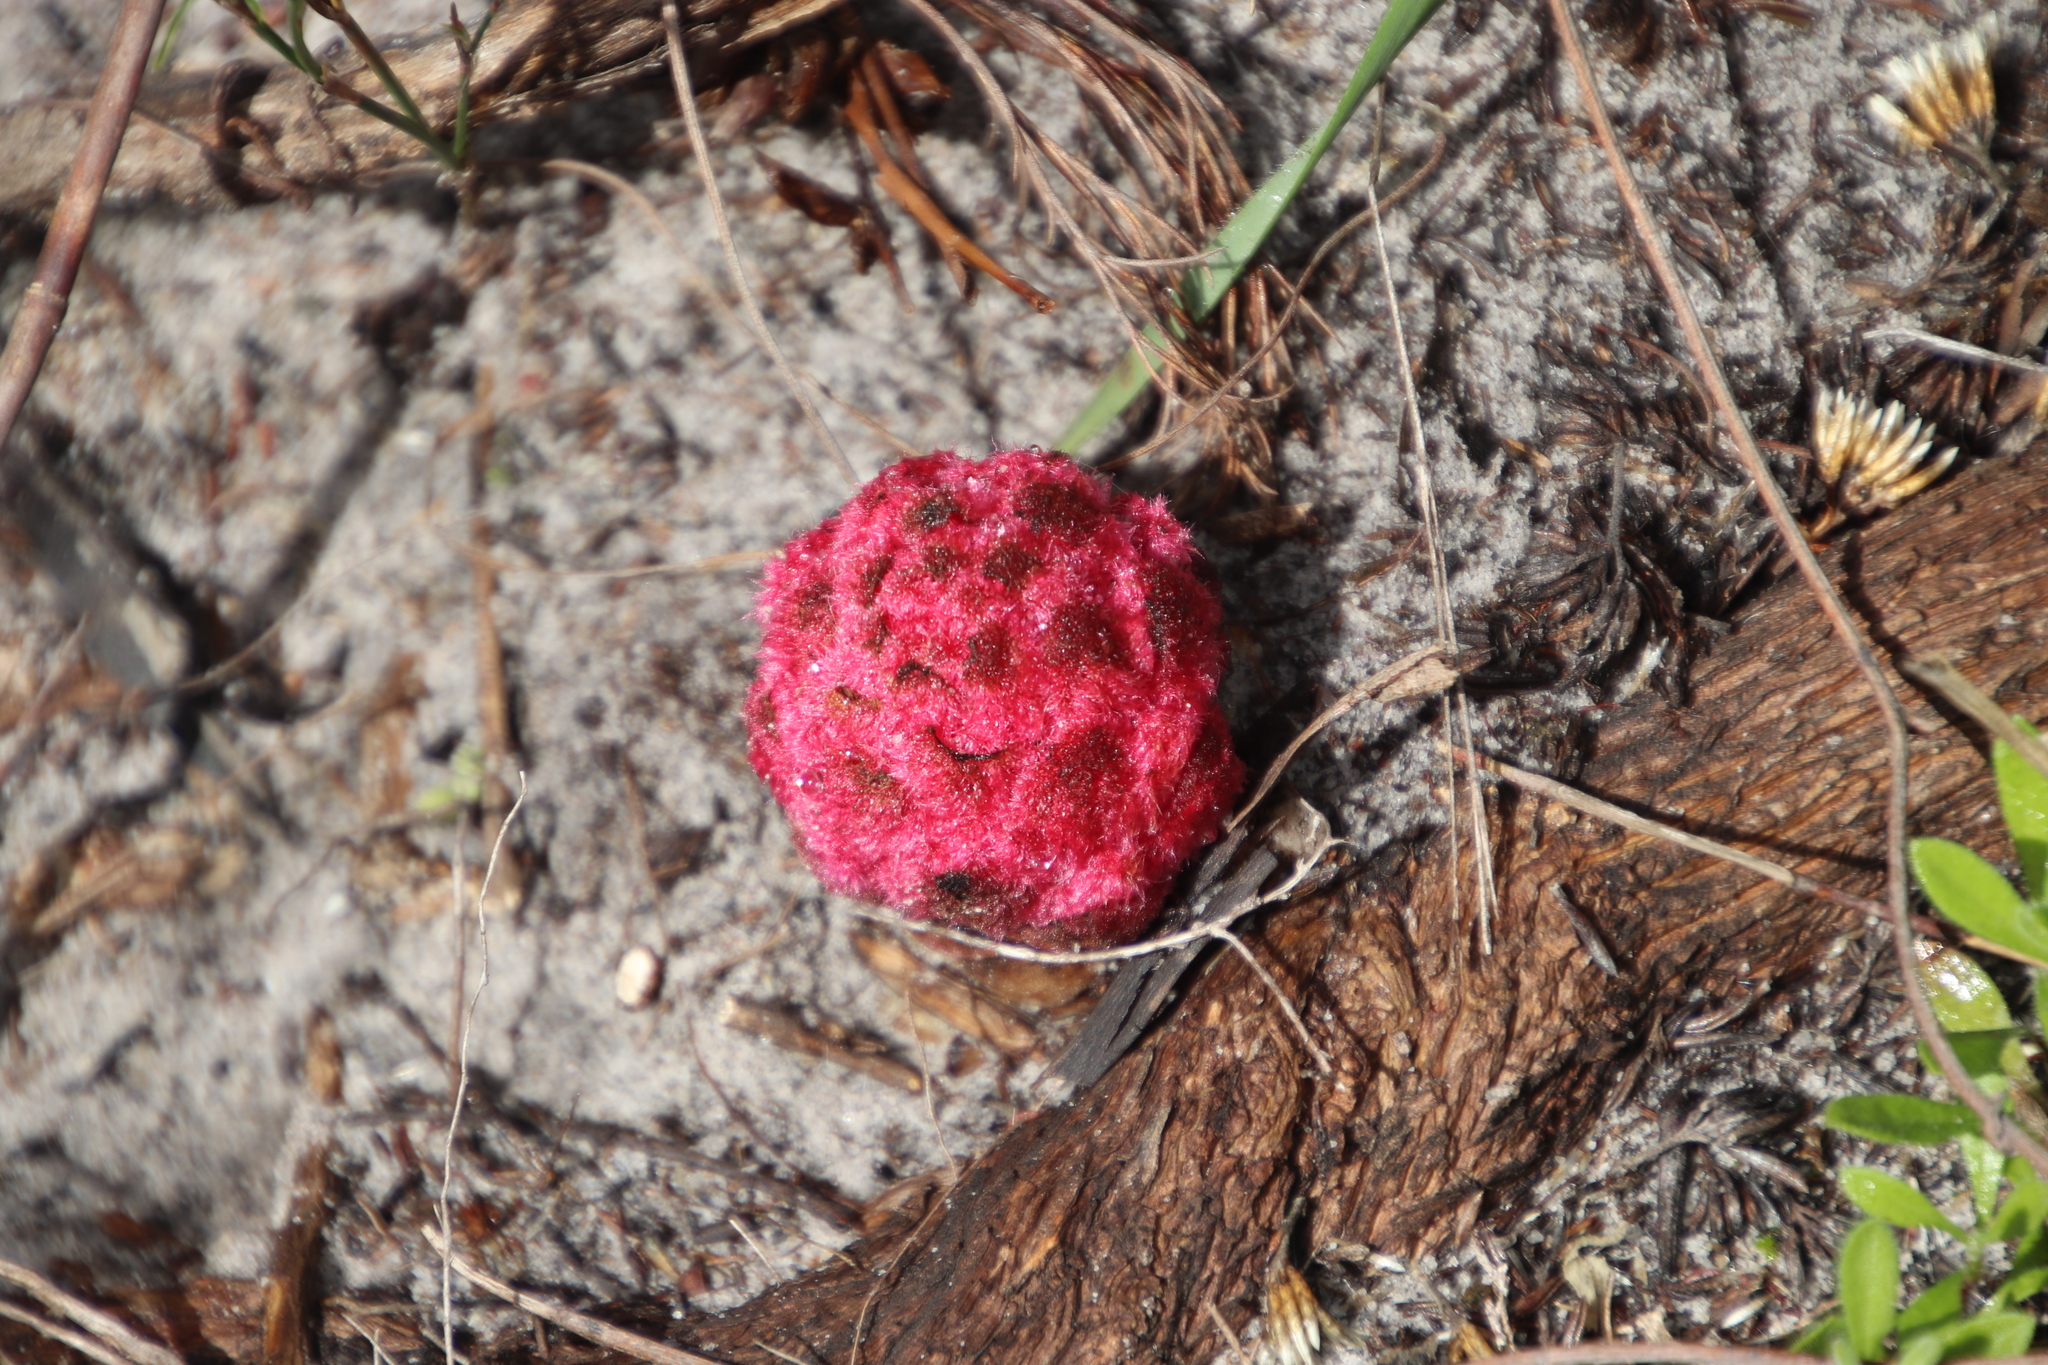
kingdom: Plantae
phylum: Tracheophyta
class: Magnoliopsida
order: Lamiales
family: Orobanchaceae
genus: Hyobanche
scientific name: Hyobanche sanguinea
